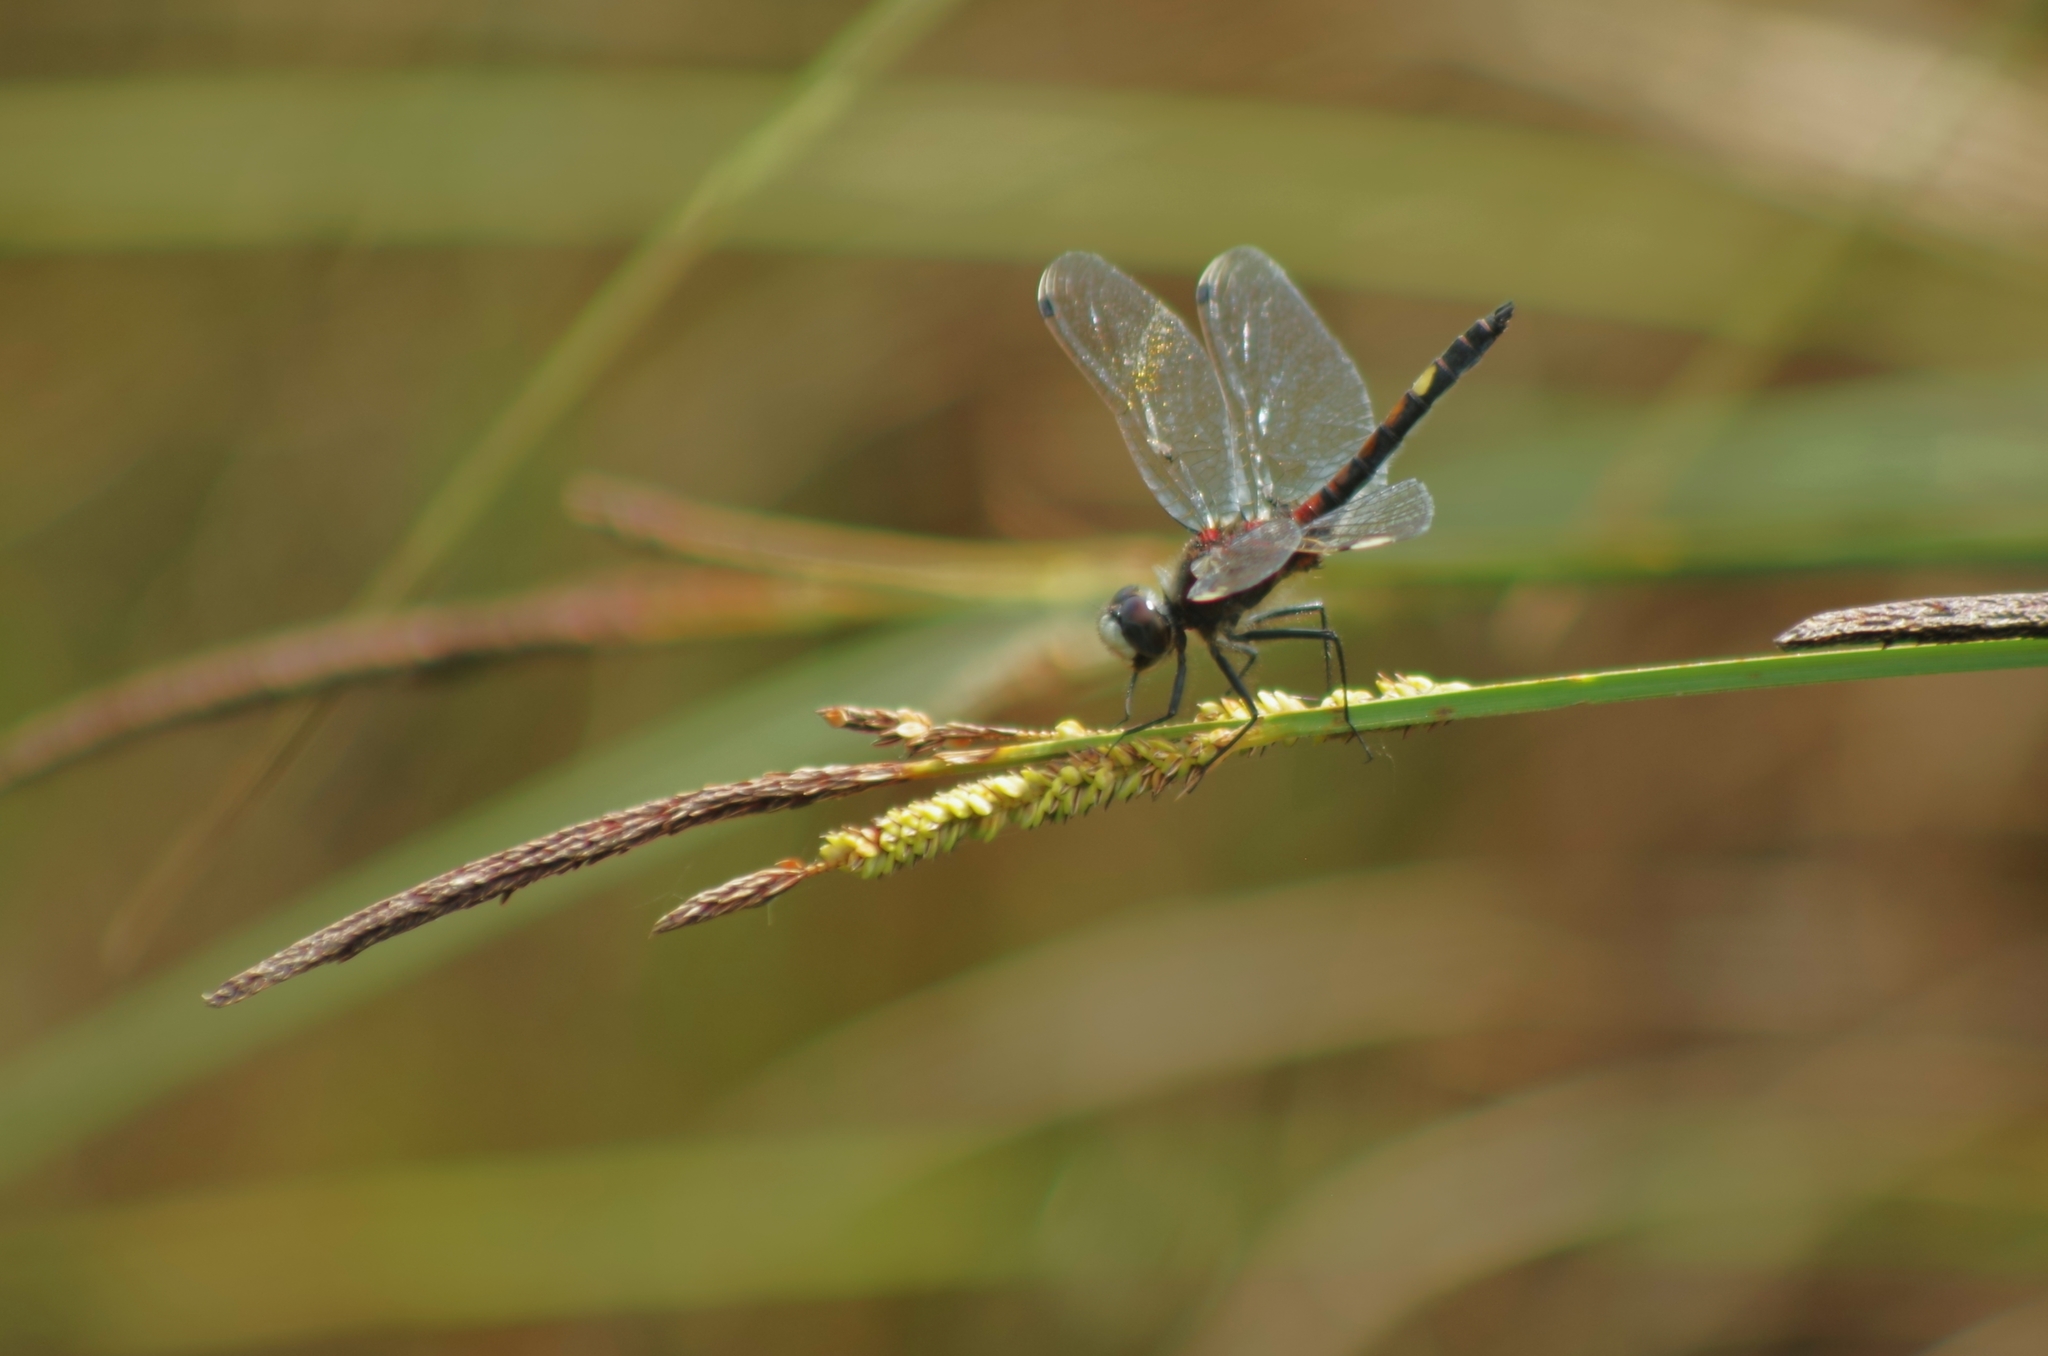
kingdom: Animalia
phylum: Arthropoda
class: Insecta
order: Odonata
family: Libellulidae
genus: Leucorrhinia
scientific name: Leucorrhinia pectoralis
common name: Yellow-spotted whiteface
